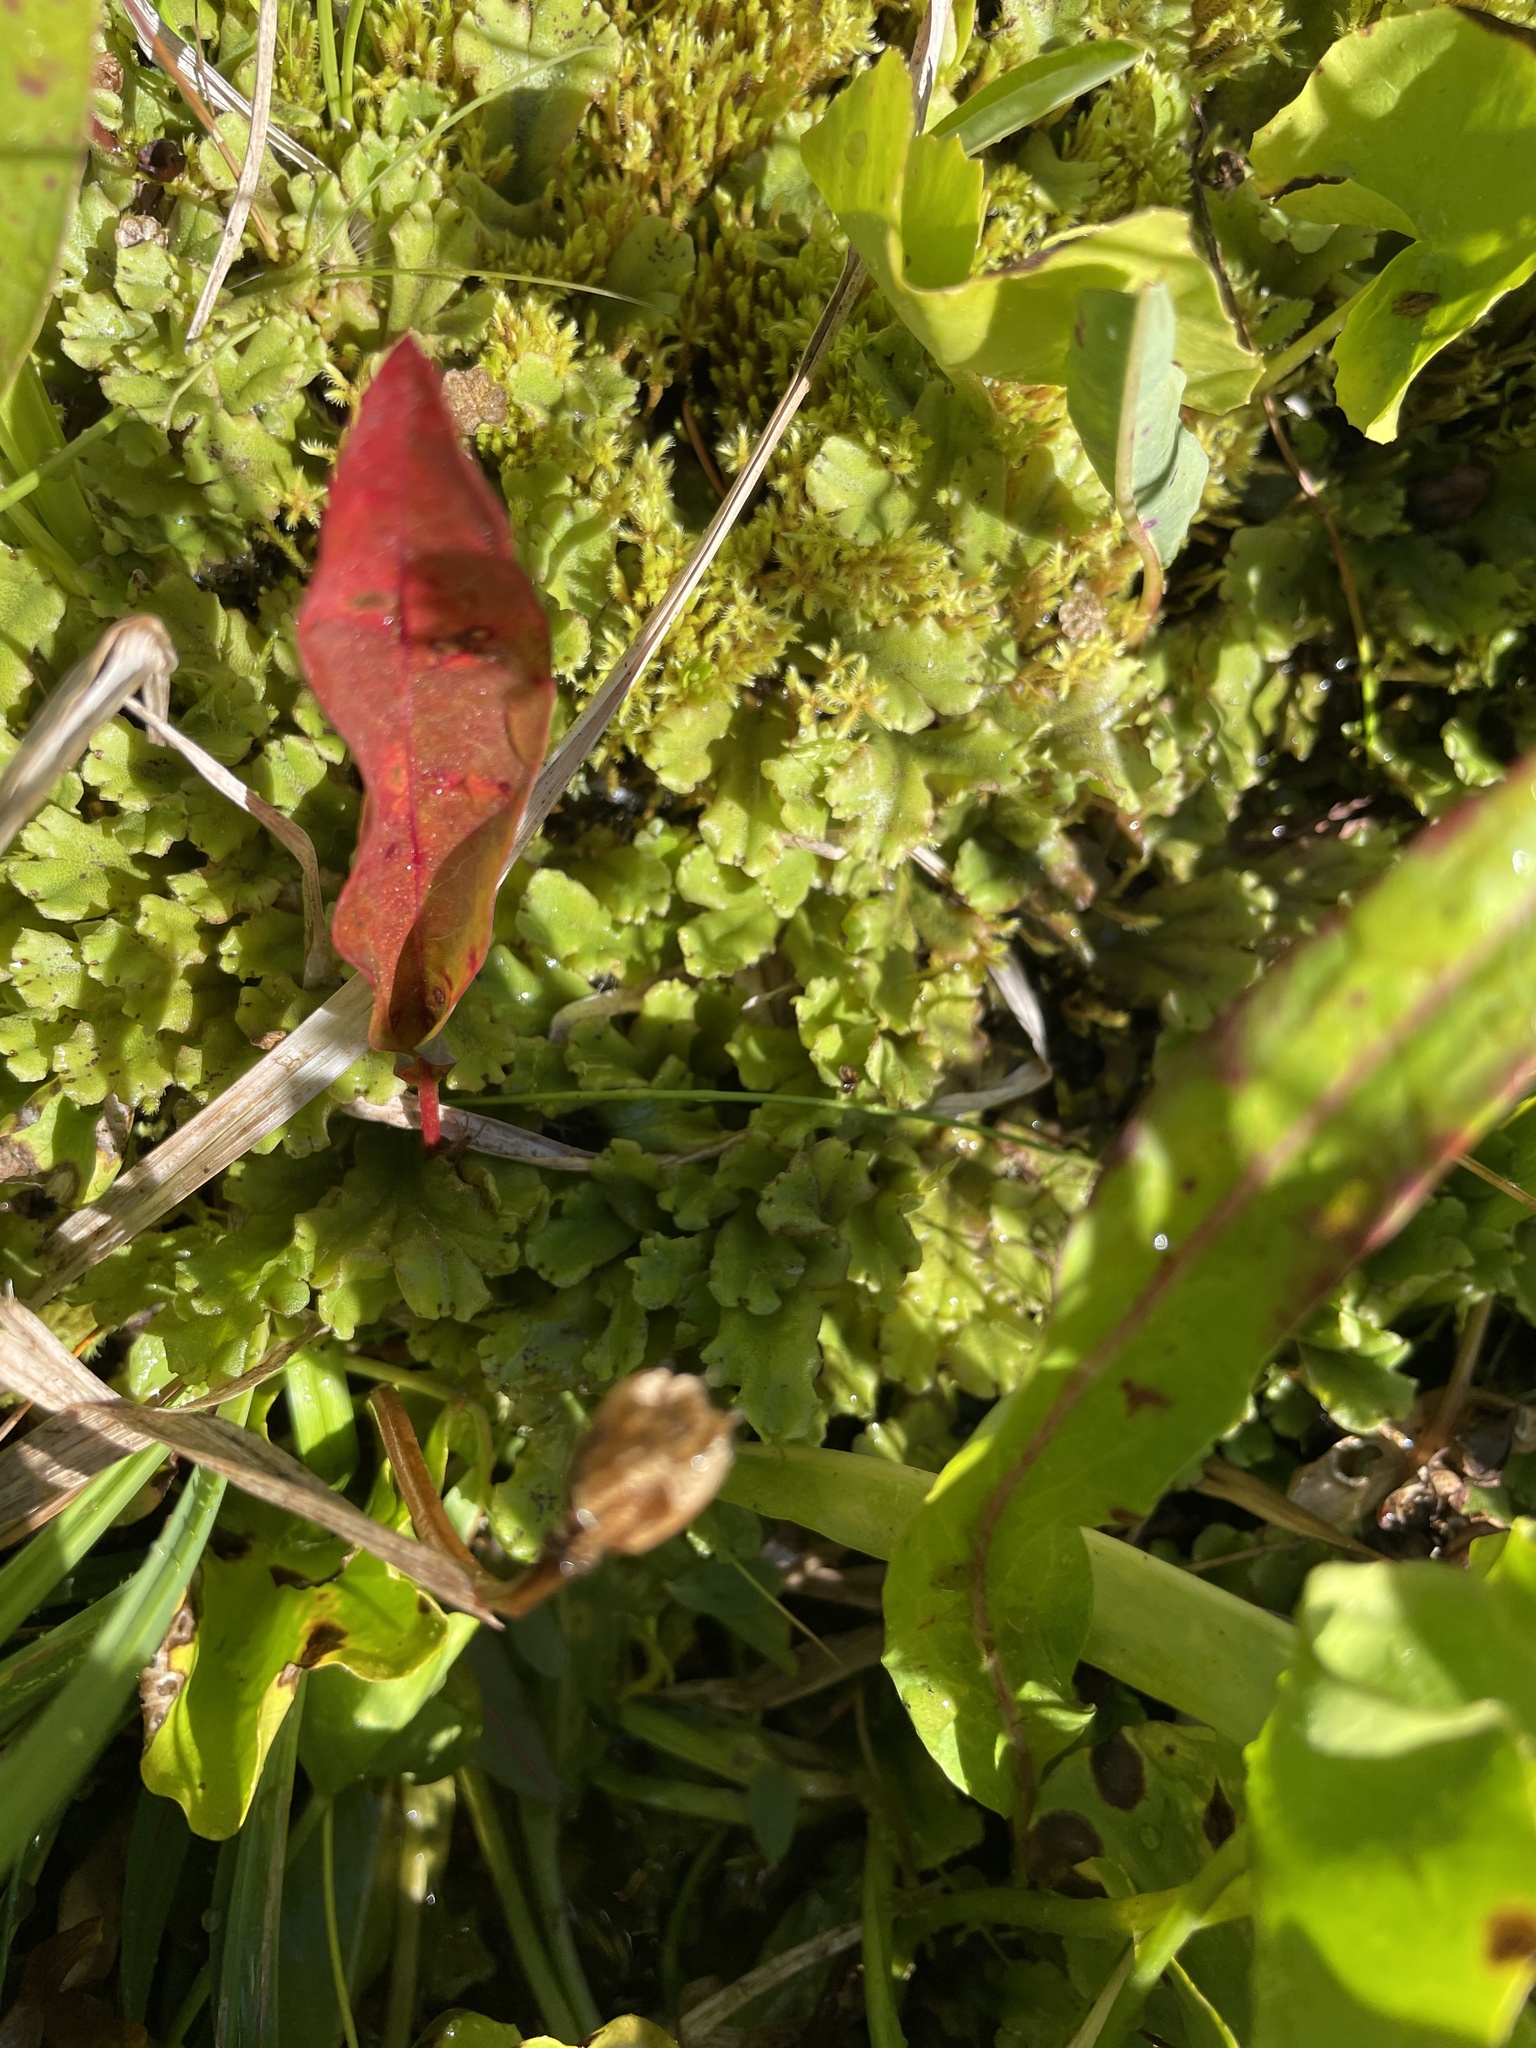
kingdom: Plantae
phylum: Marchantiophyta
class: Marchantiopsida
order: Marchantiales
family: Marchantiaceae
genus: Marchantia
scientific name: Marchantia polymorpha
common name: Common liverwort
